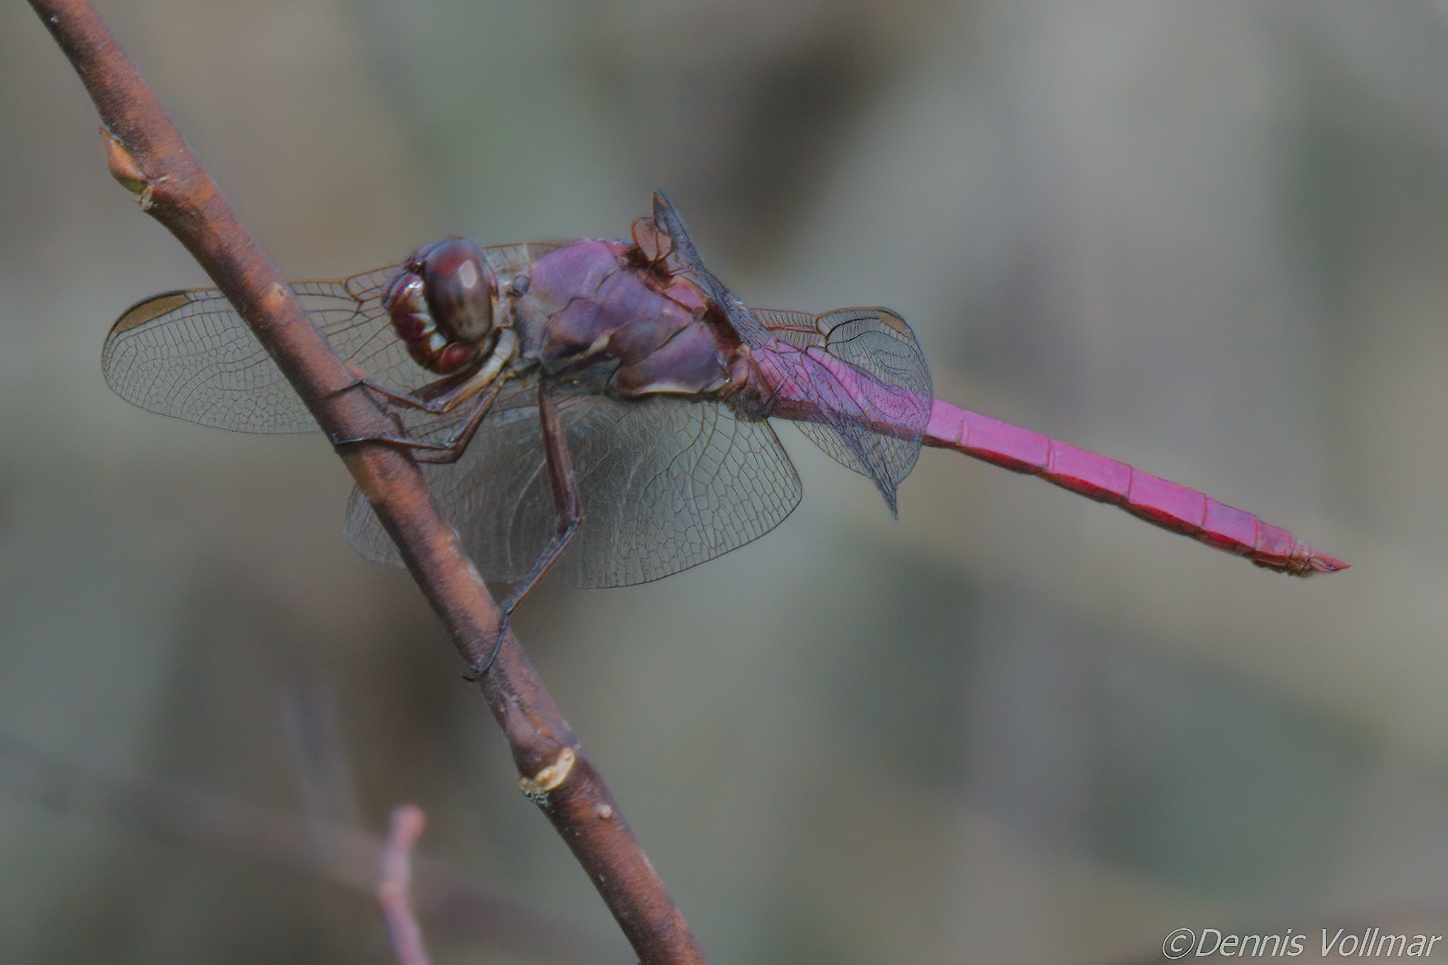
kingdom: Animalia
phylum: Arthropoda
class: Insecta
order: Odonata
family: Libellulidae
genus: Orthemis
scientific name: Orthemis ferruginea
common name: Roseate skimmer
